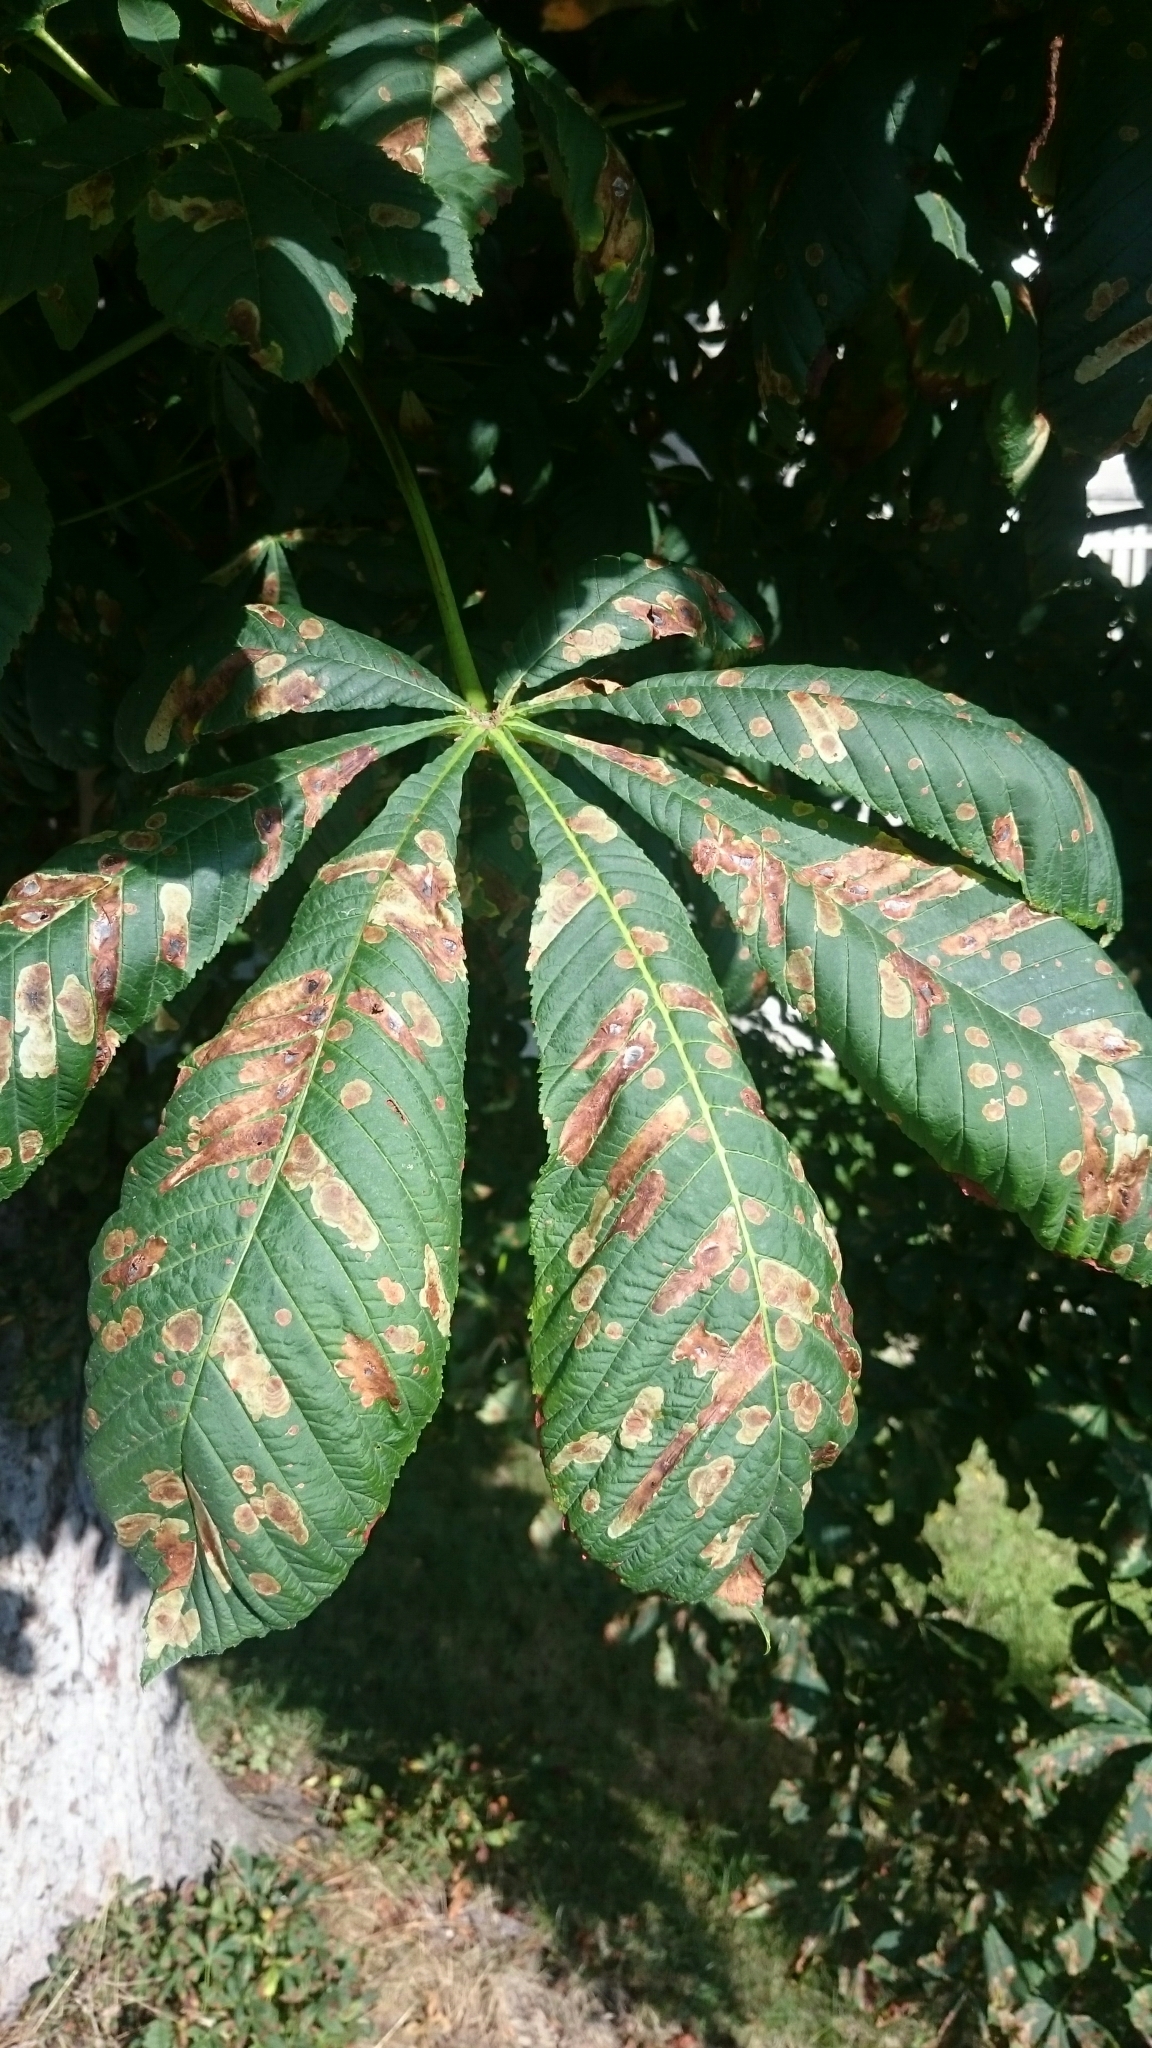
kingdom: Animalia
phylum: Arthropoda
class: Insecta
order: Lepidoptera
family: Gracillariidae
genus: Cameraria
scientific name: Cameraria ohridella
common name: Horse-chestnut leaf-miner
